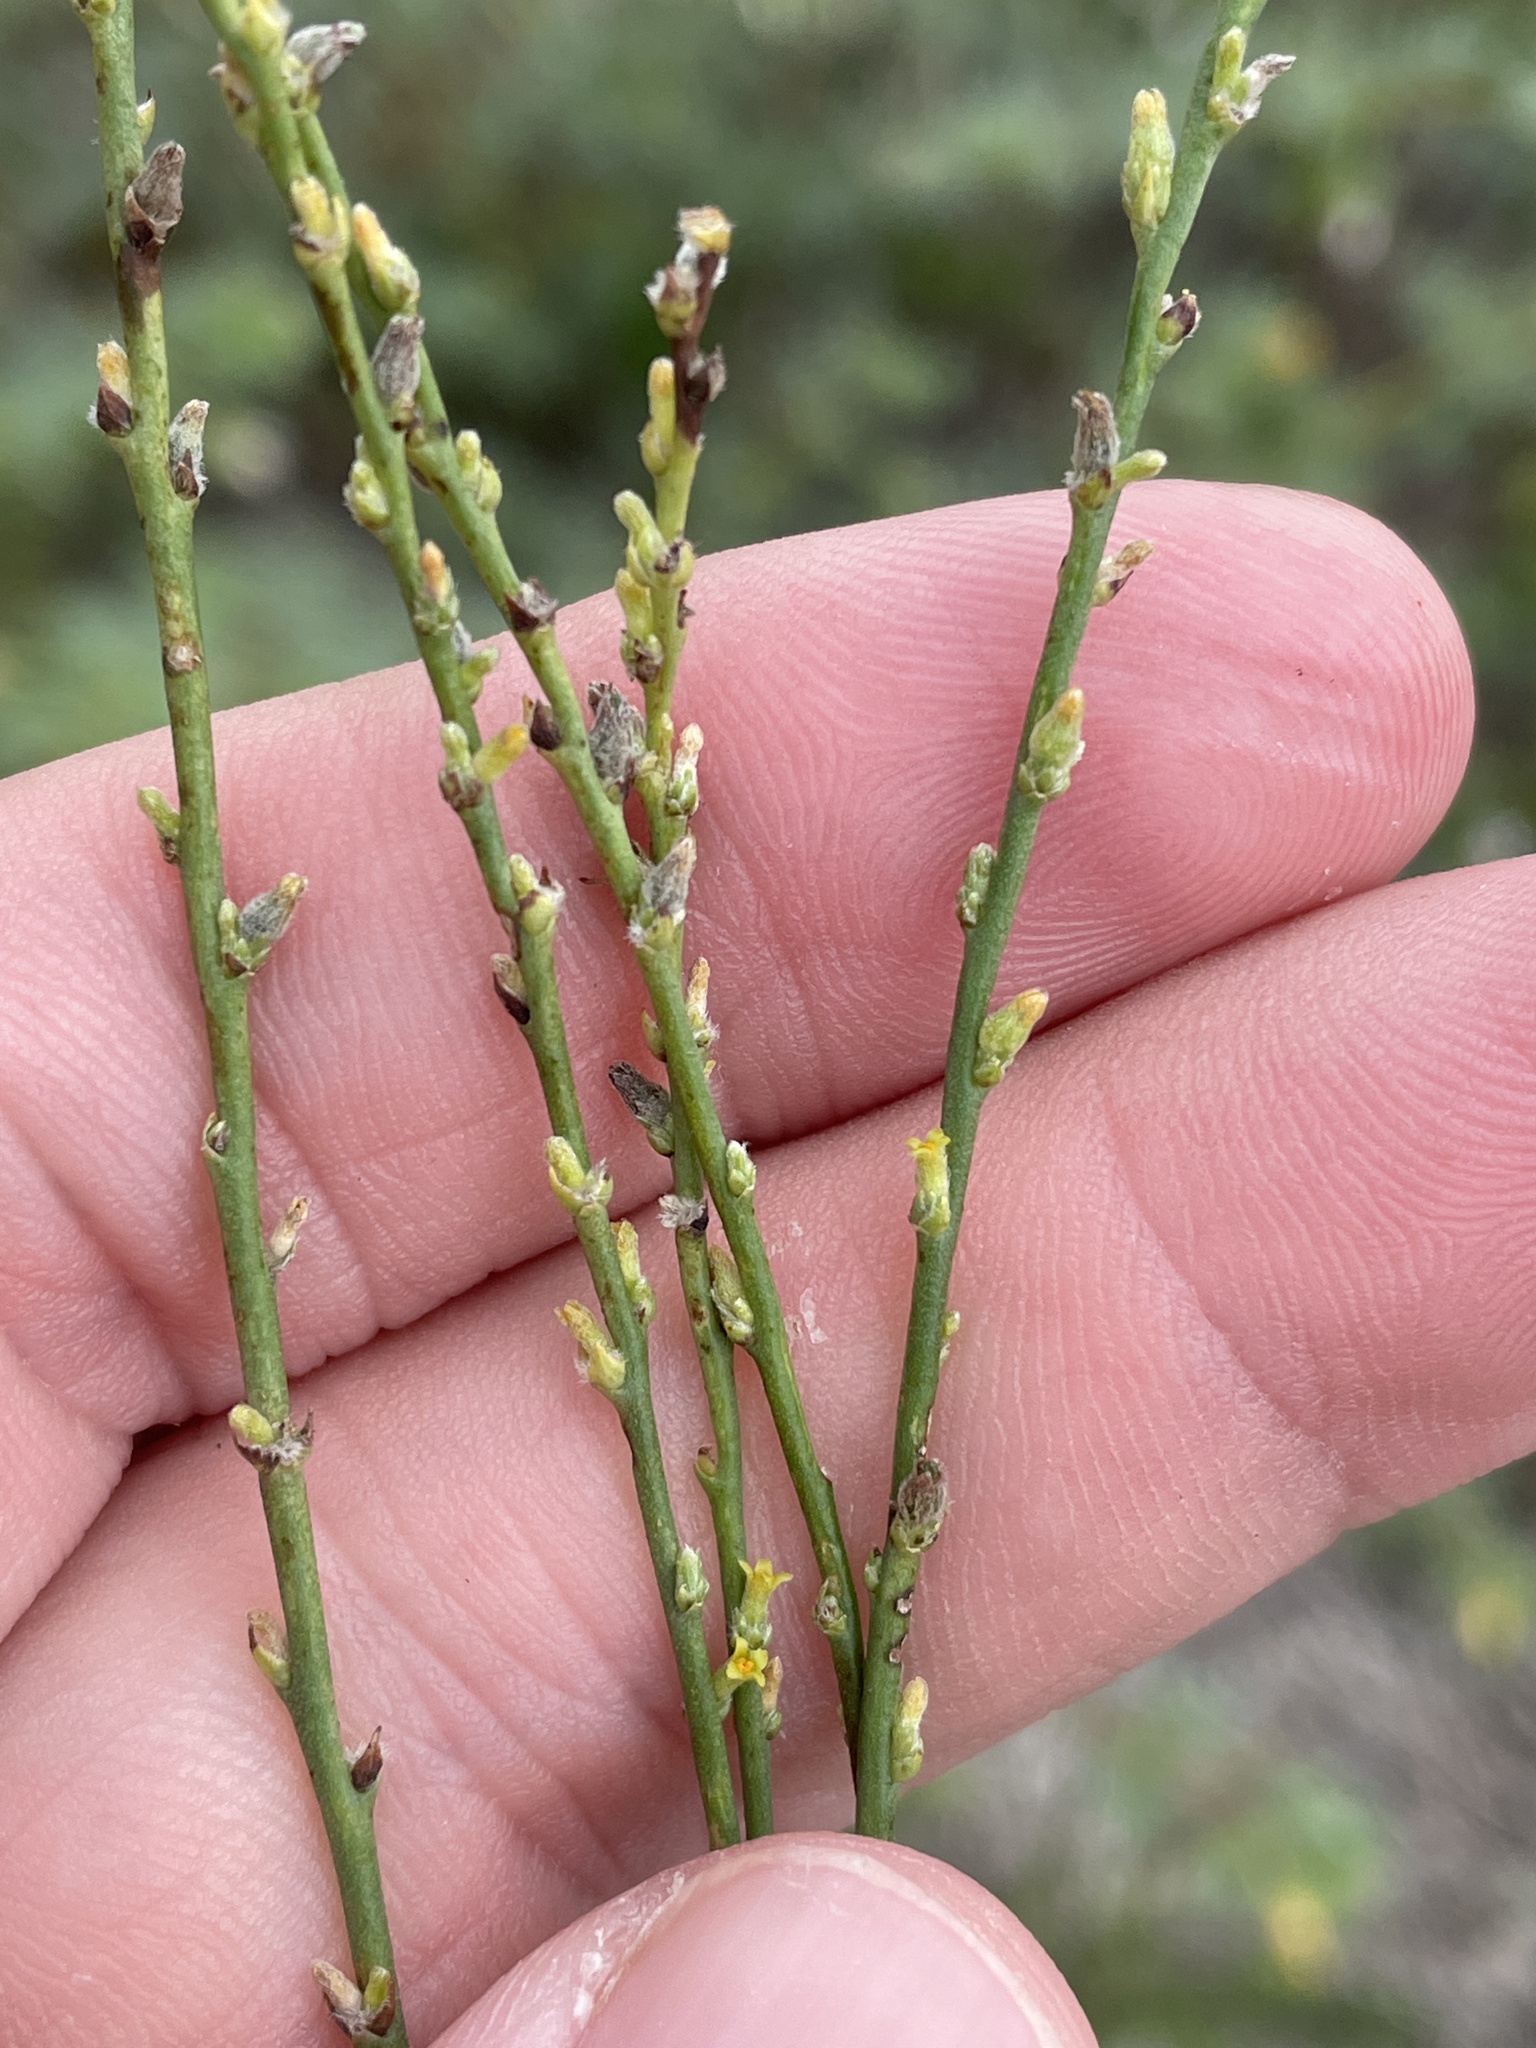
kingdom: Plantae
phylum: Tracheophyta
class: Magnoliopsida
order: Malvales
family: Thymelaeaceae
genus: Thymelaea
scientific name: Thymelaea passerina
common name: Annual thymelaea
